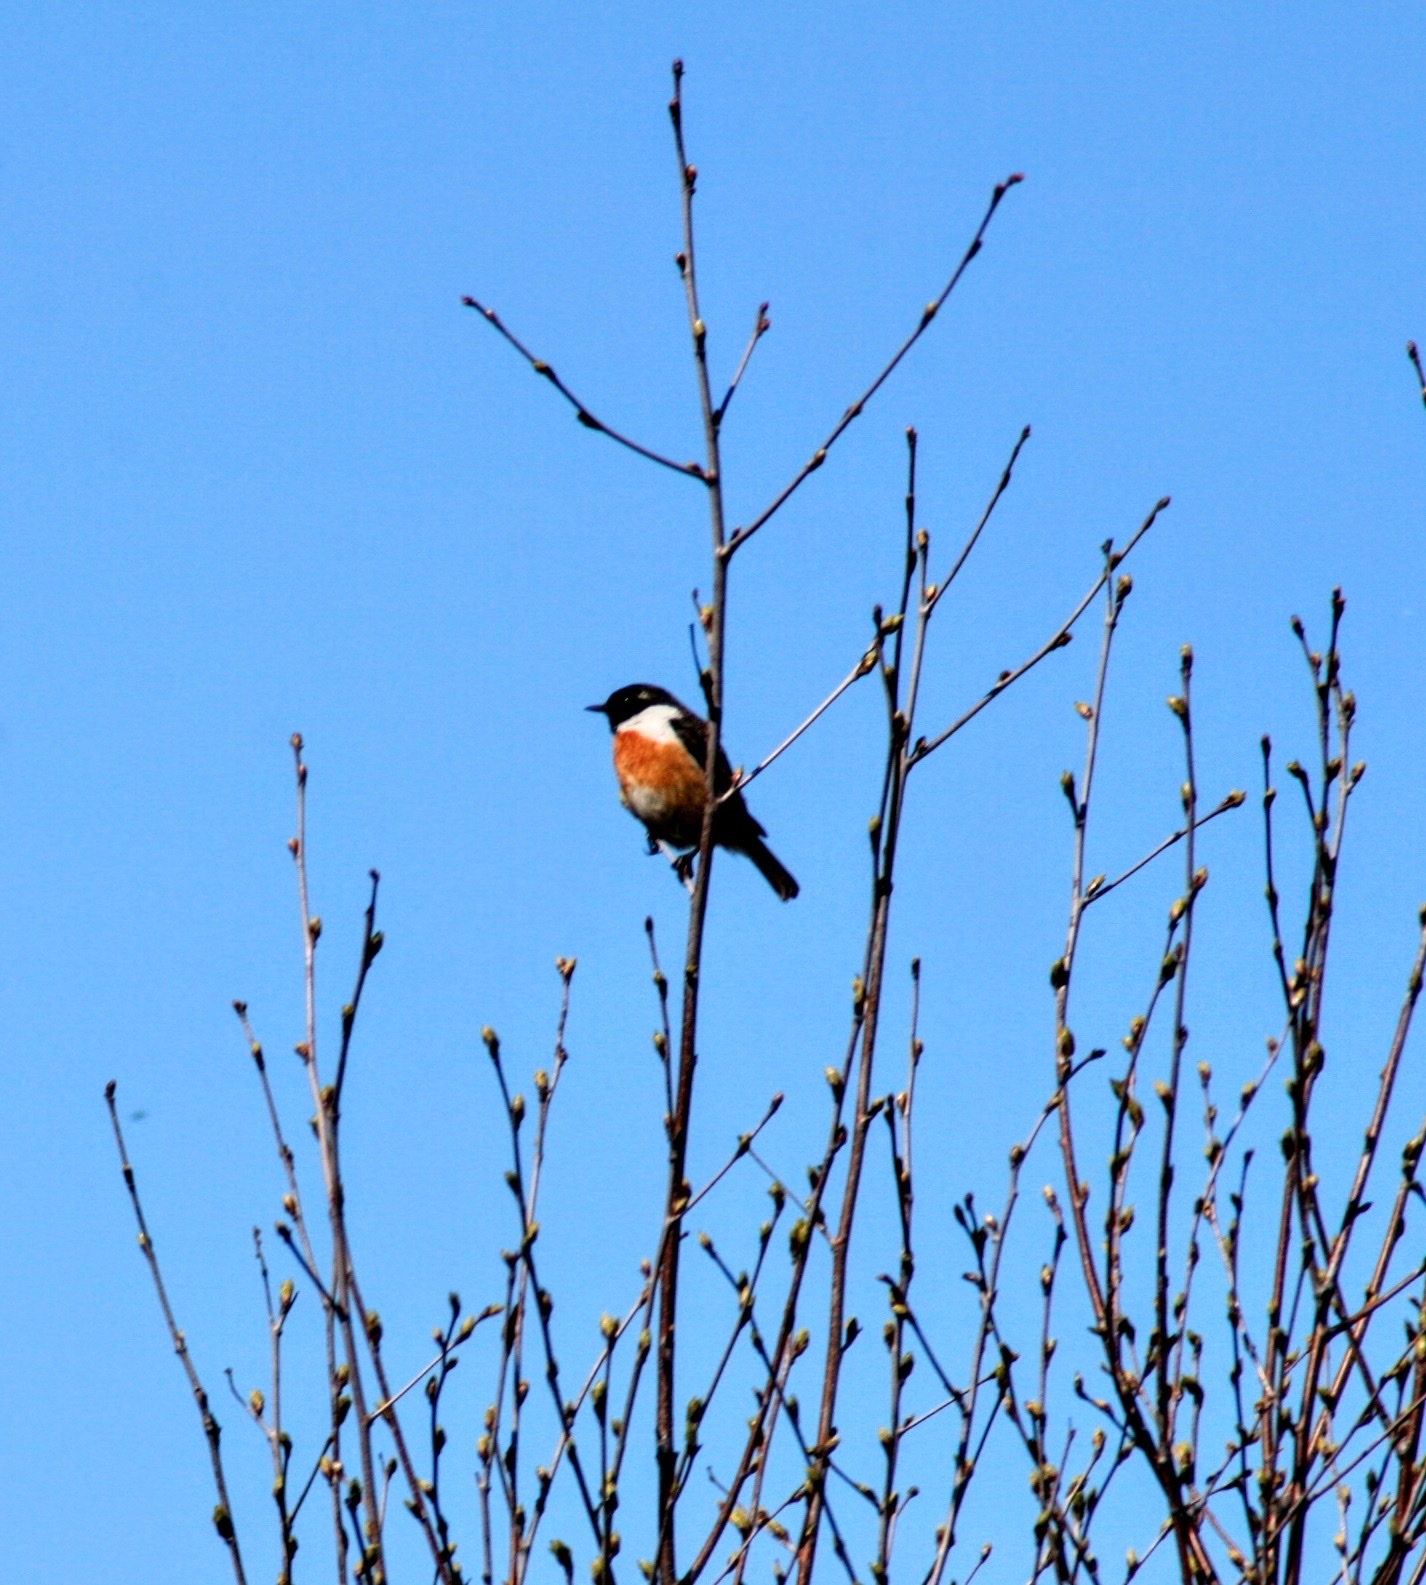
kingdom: Animalia
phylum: Chordata
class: Aves
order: Passeriformes
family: Muscicapidae
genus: Saxicola
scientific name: Saxicola rubicola
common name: European stonechat
